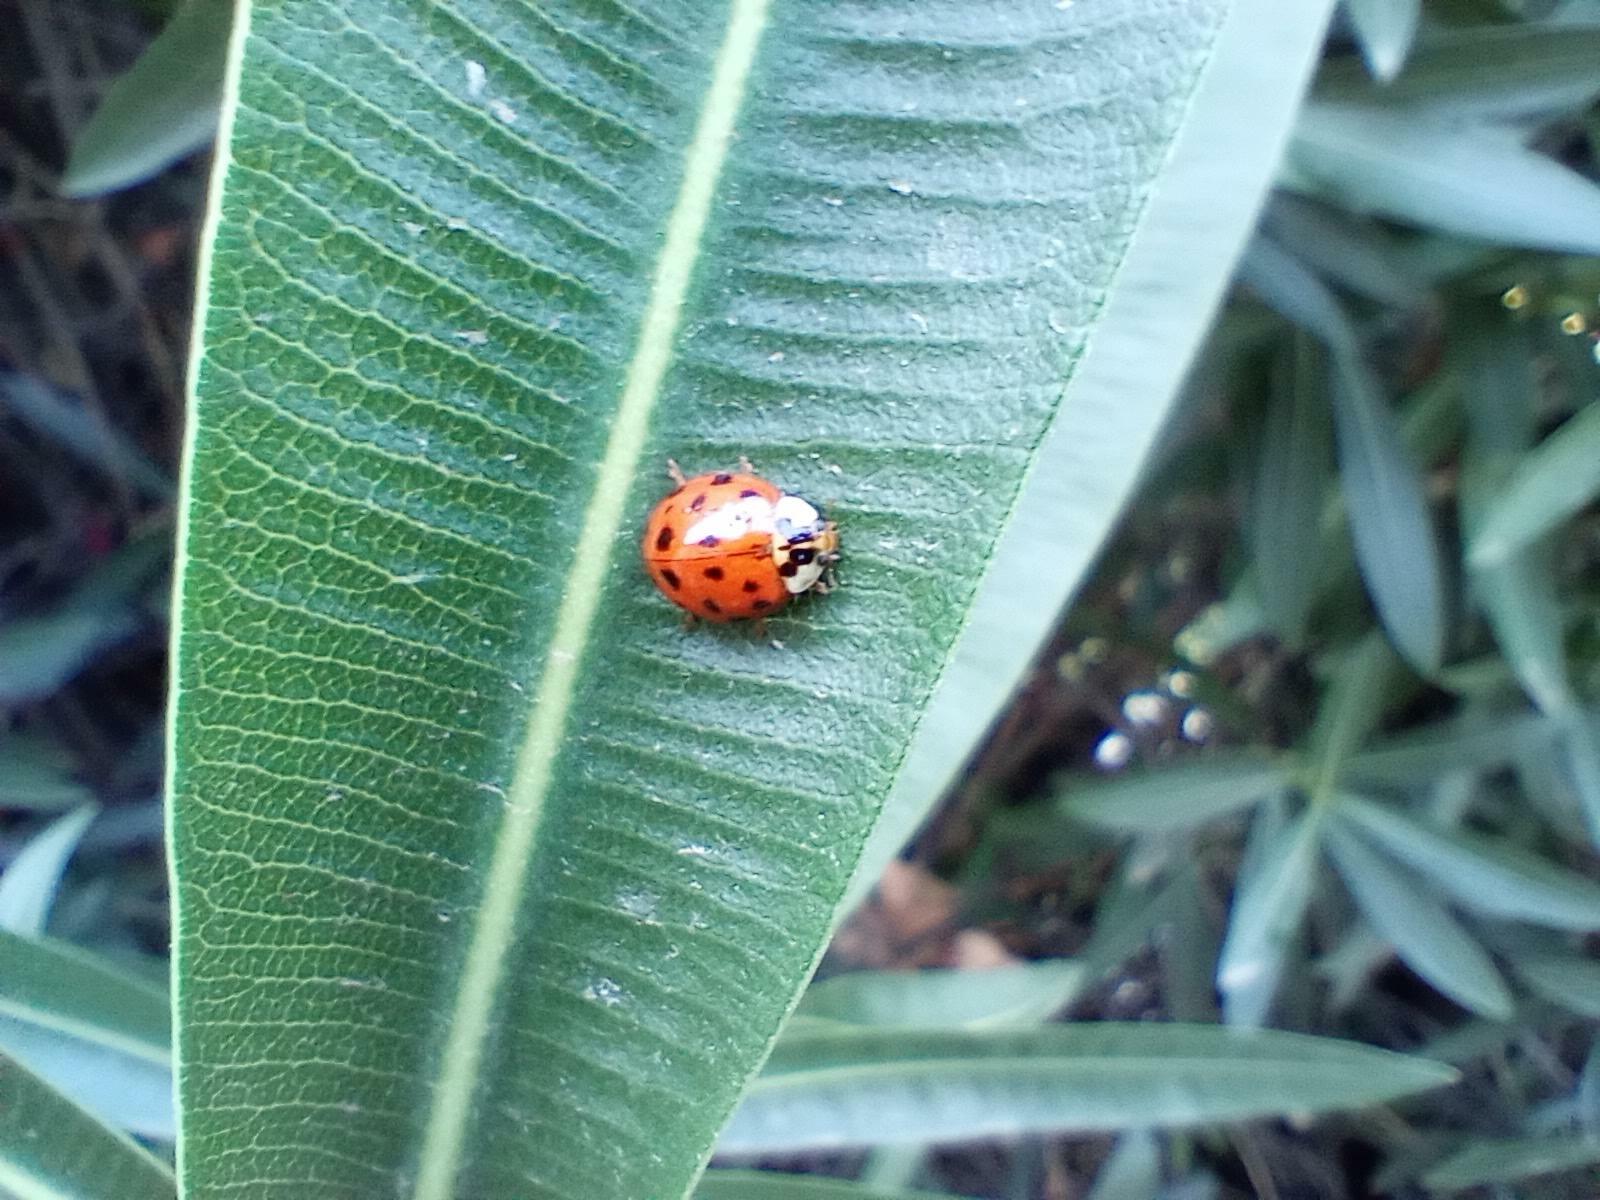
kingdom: Animalia
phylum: Arthropoda
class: Insecta
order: Coleoptera
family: Coccinellidae
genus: Harmonia
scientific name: Harmonia axyridis
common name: Harlequin ladybird
